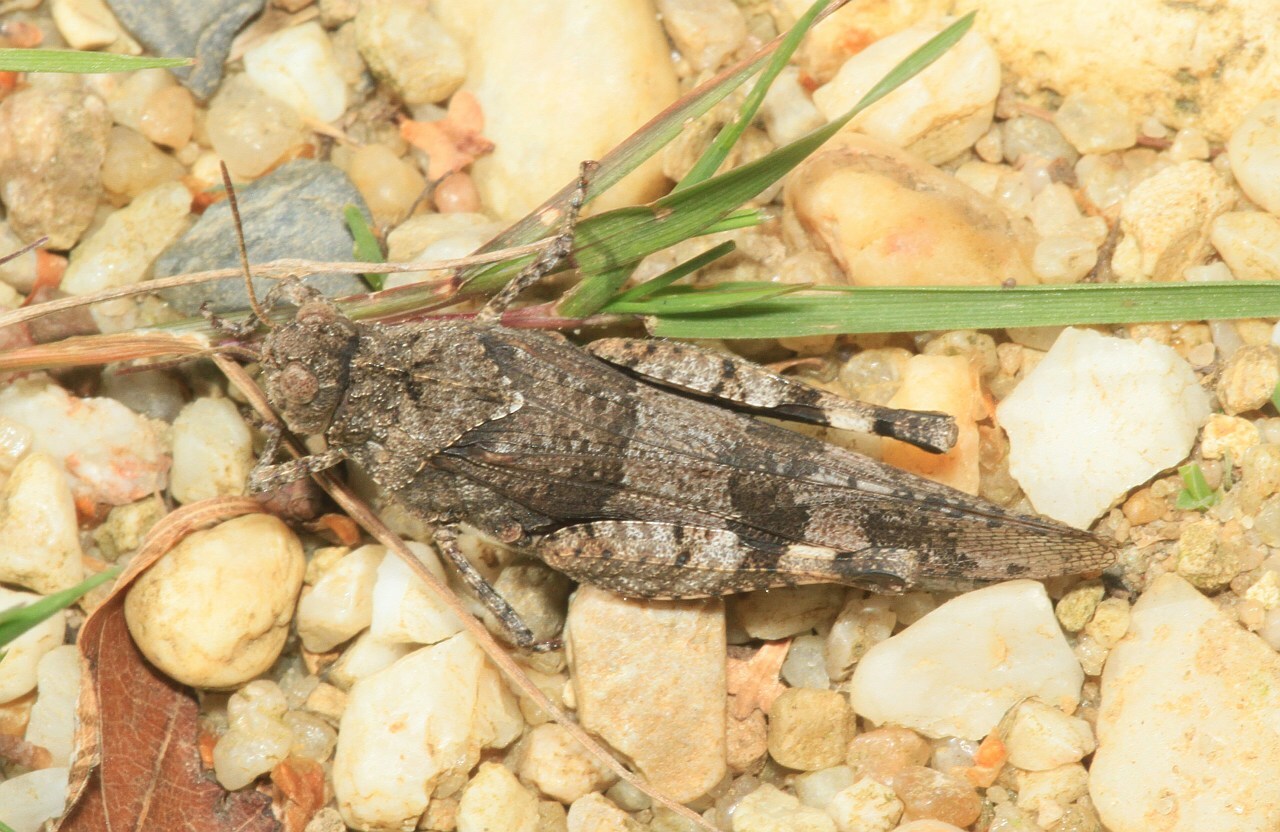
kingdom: Animalia
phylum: Arthropoda
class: Insecta
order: Orthoptera
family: Acrididae
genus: Oedipoda
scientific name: Oedipoda caerulescens
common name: Blue-winged grasshopper
